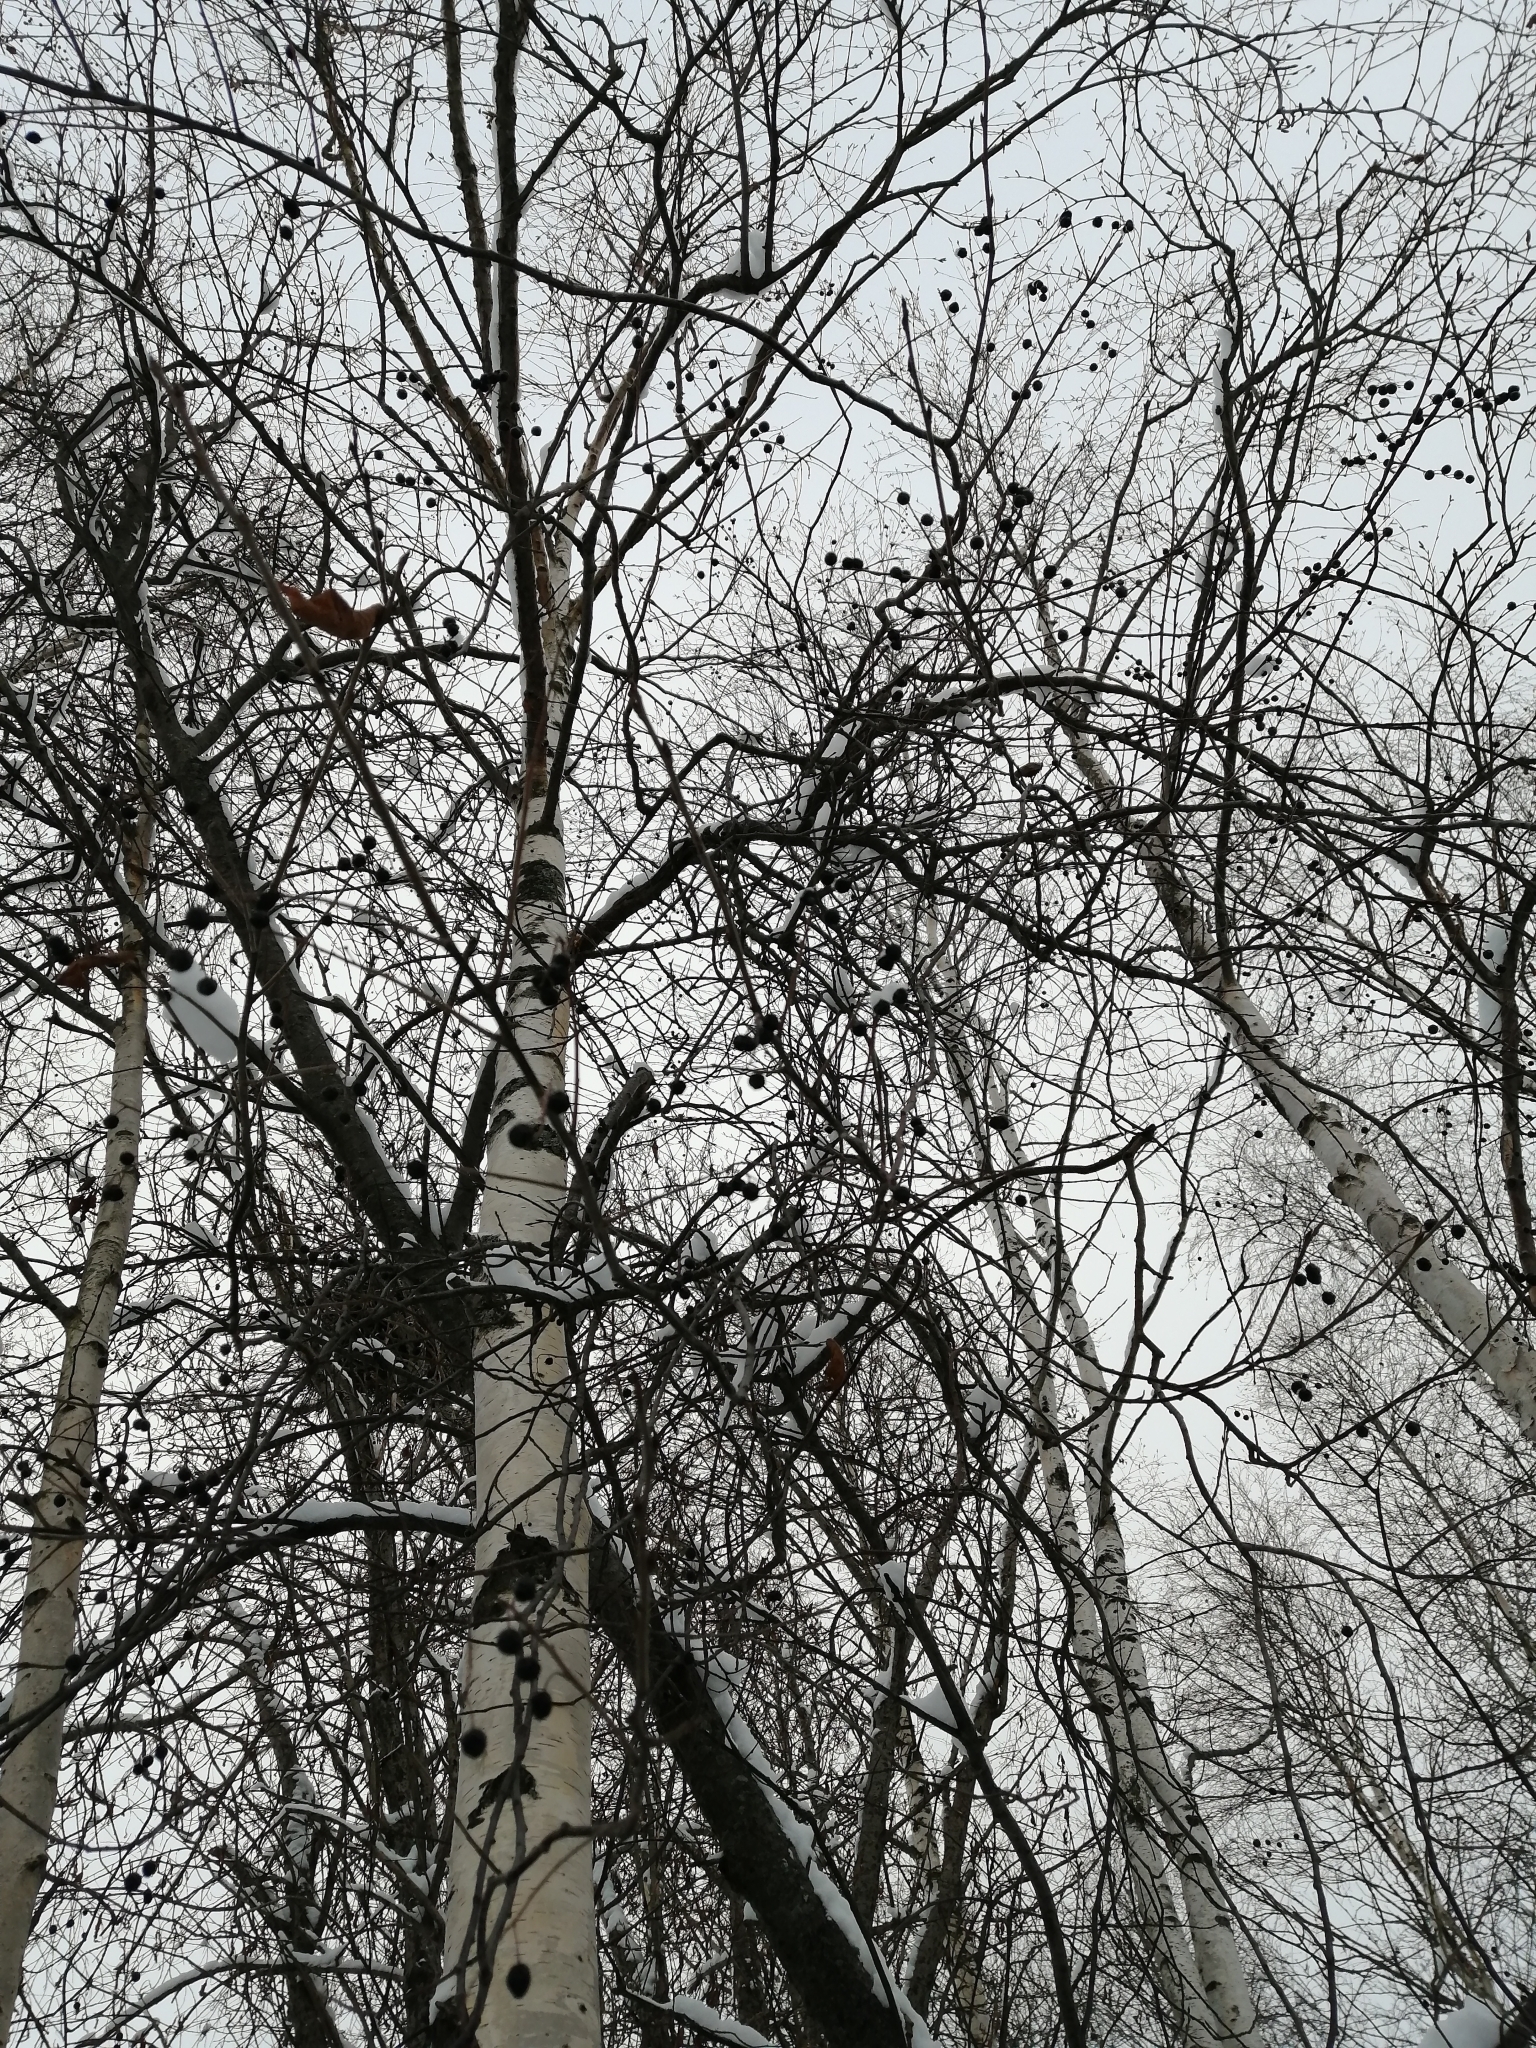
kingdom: Plantae
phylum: Tracheophyta
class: Magnoliopsida
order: Rosales
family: Rosaceae
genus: Prunus
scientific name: Prunus padus
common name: Bird cherry
